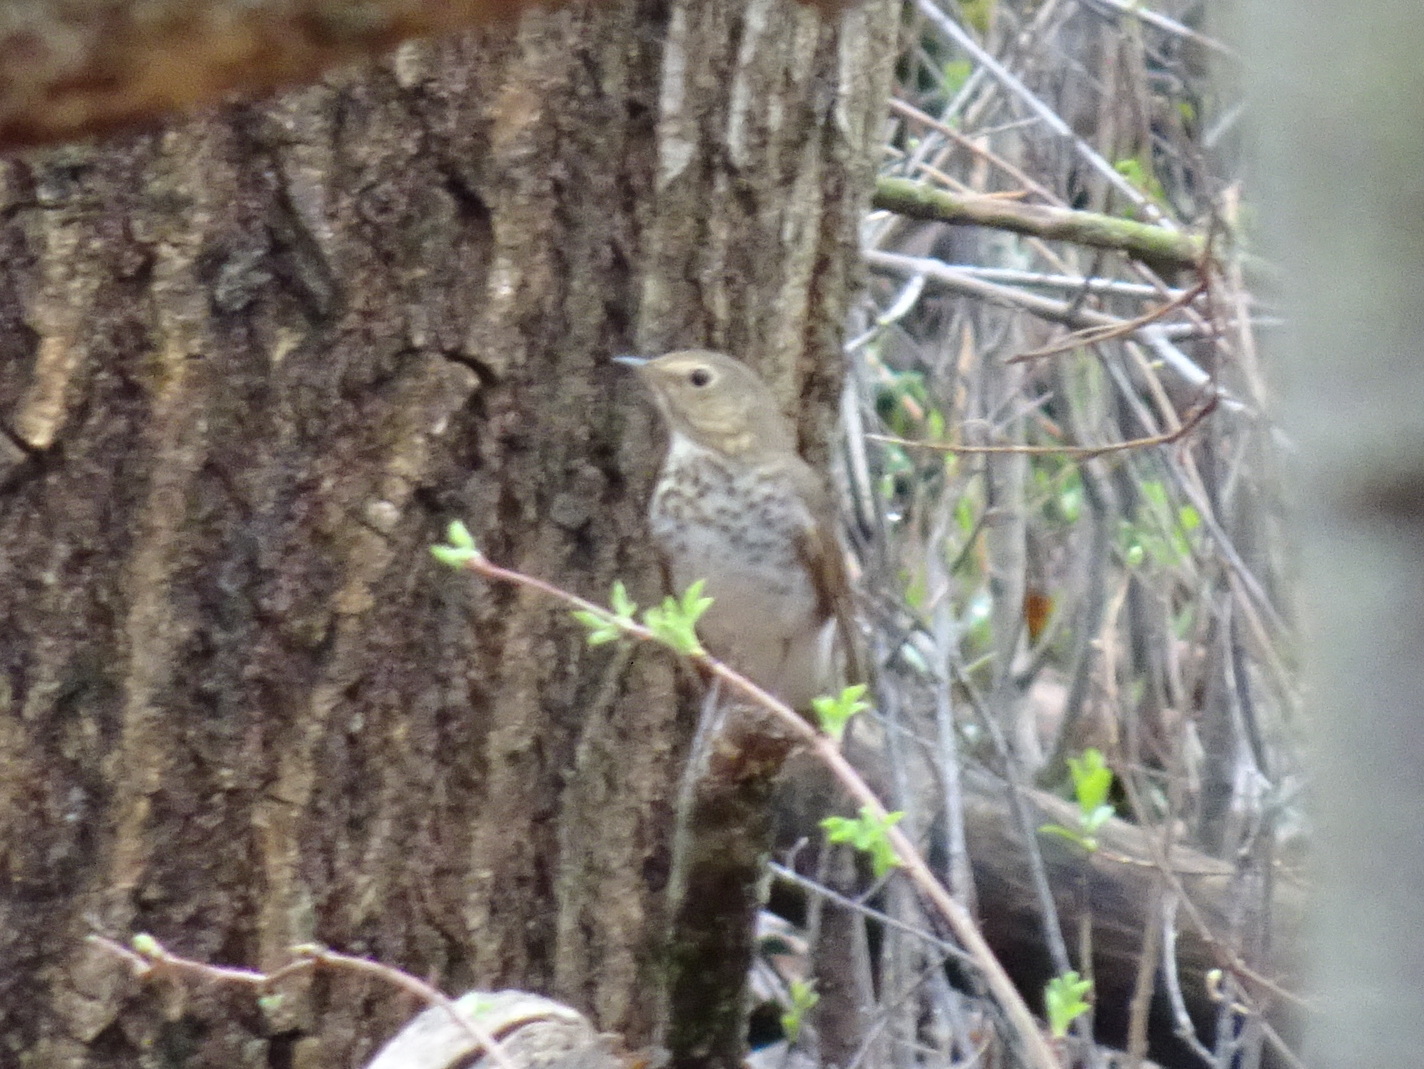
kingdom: Animalia
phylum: Chordata
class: Aves
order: Passeriformes
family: Turdidae
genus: Catharus
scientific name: Catharus ustulatus
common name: Swainson's thrush
